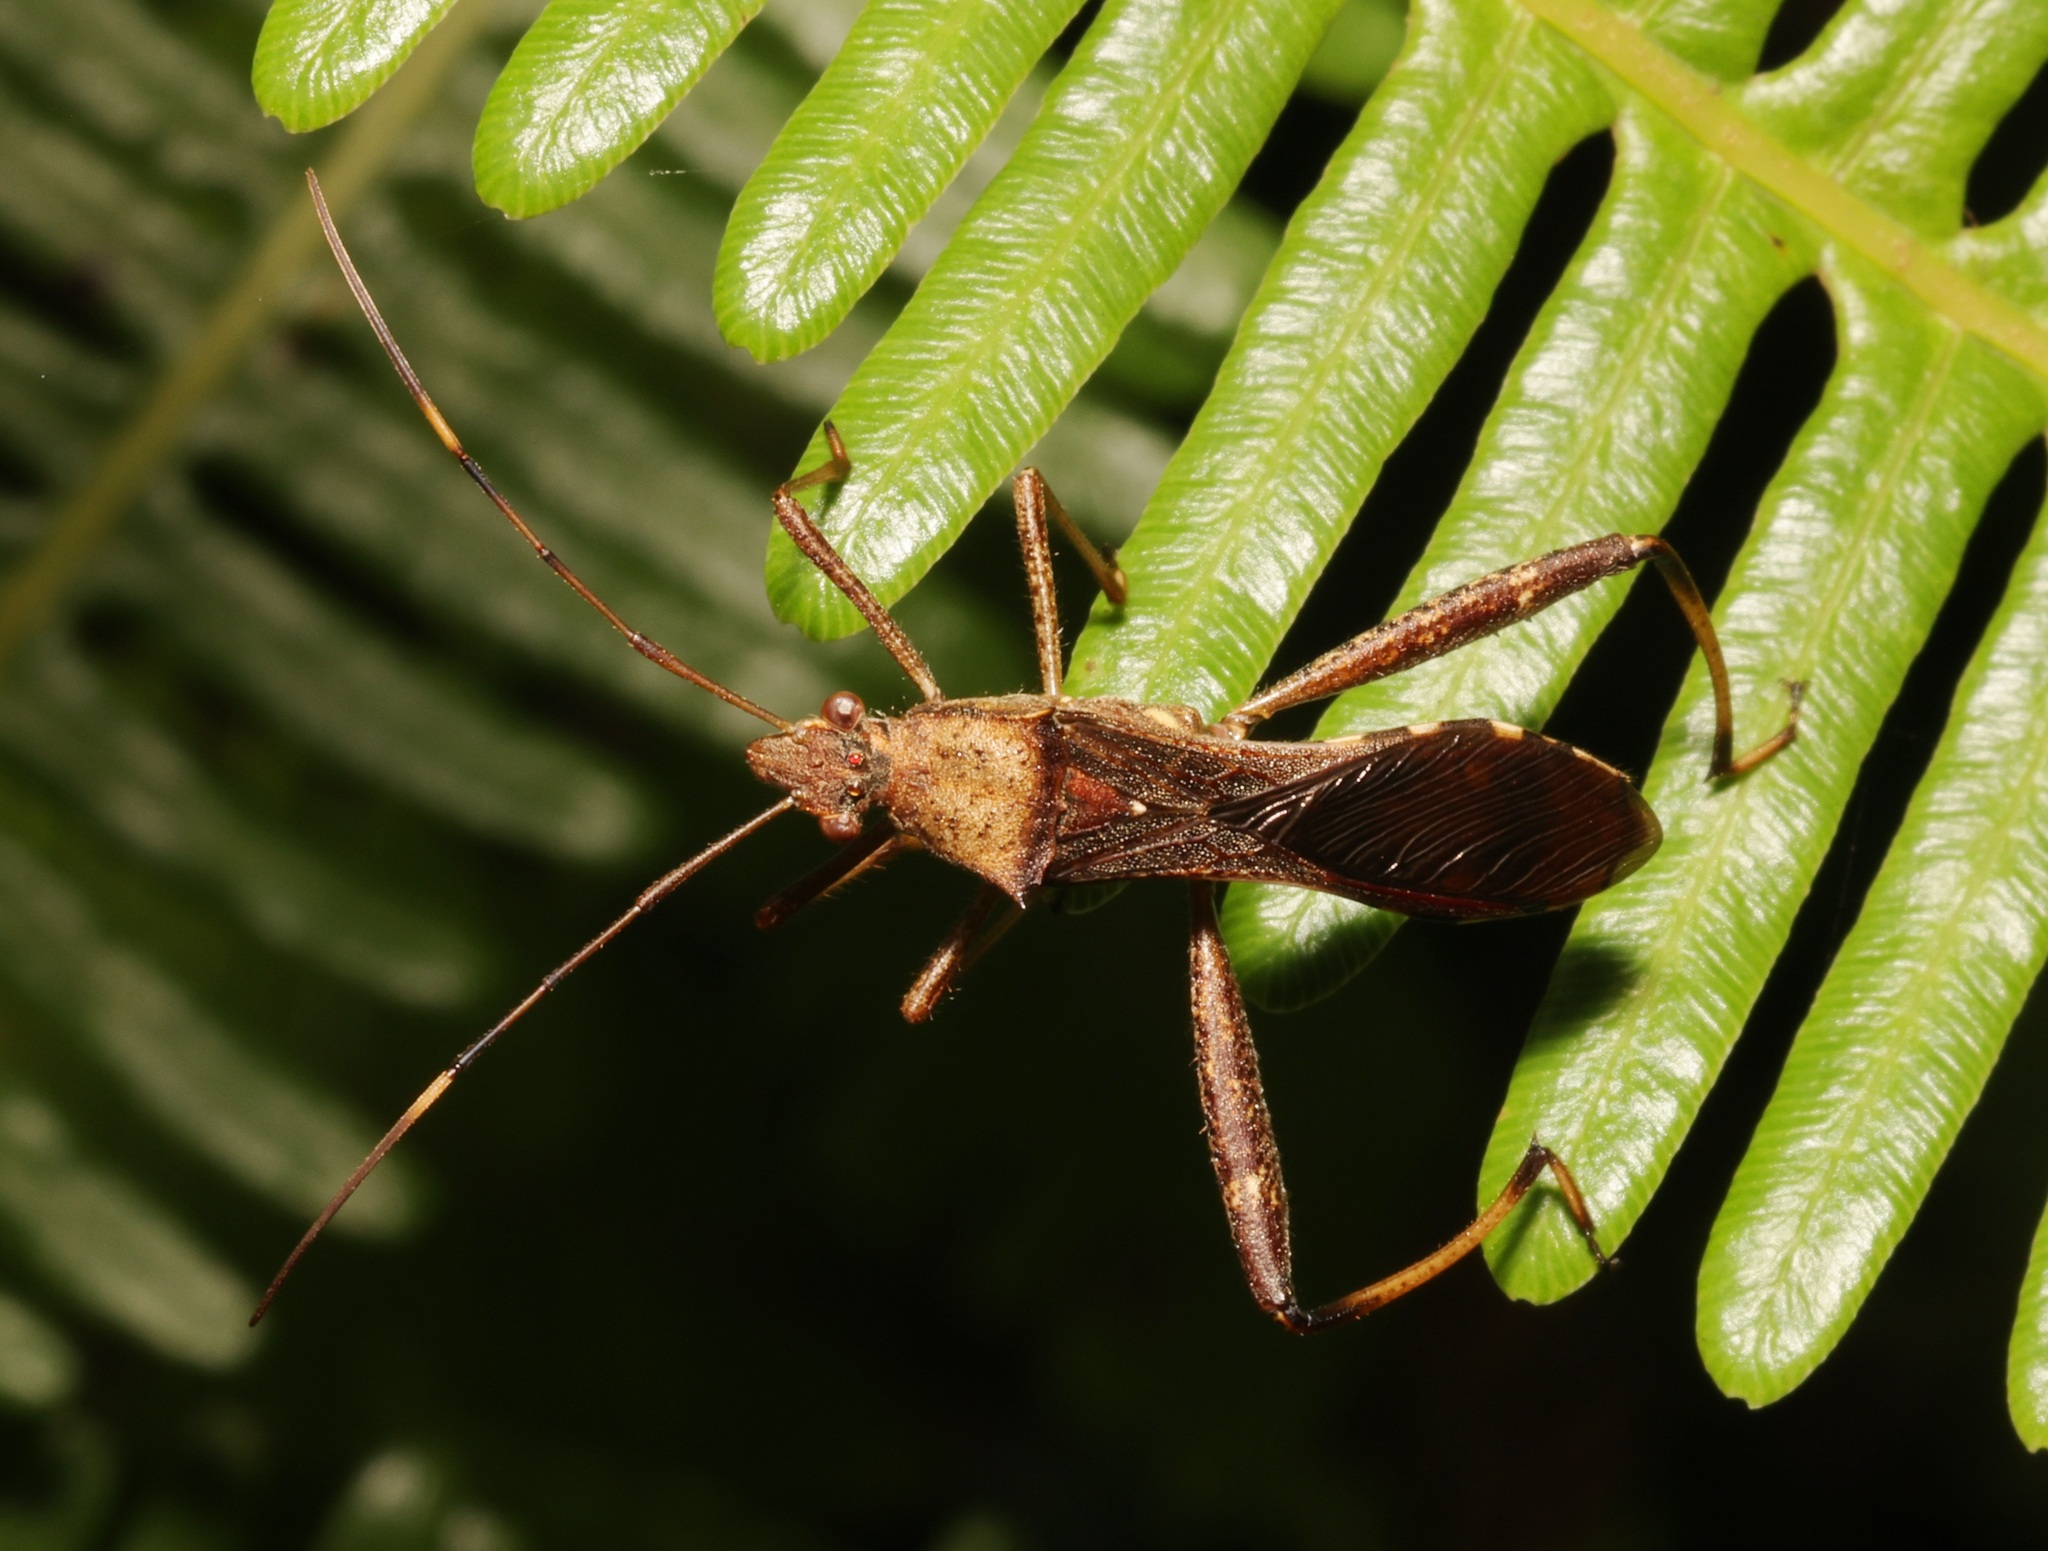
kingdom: Animalia
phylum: Arthropoda
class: Insecta
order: Hemiptera
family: Alydidae
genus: Riptortus
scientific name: Riptortus pedestris
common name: Bean bug
